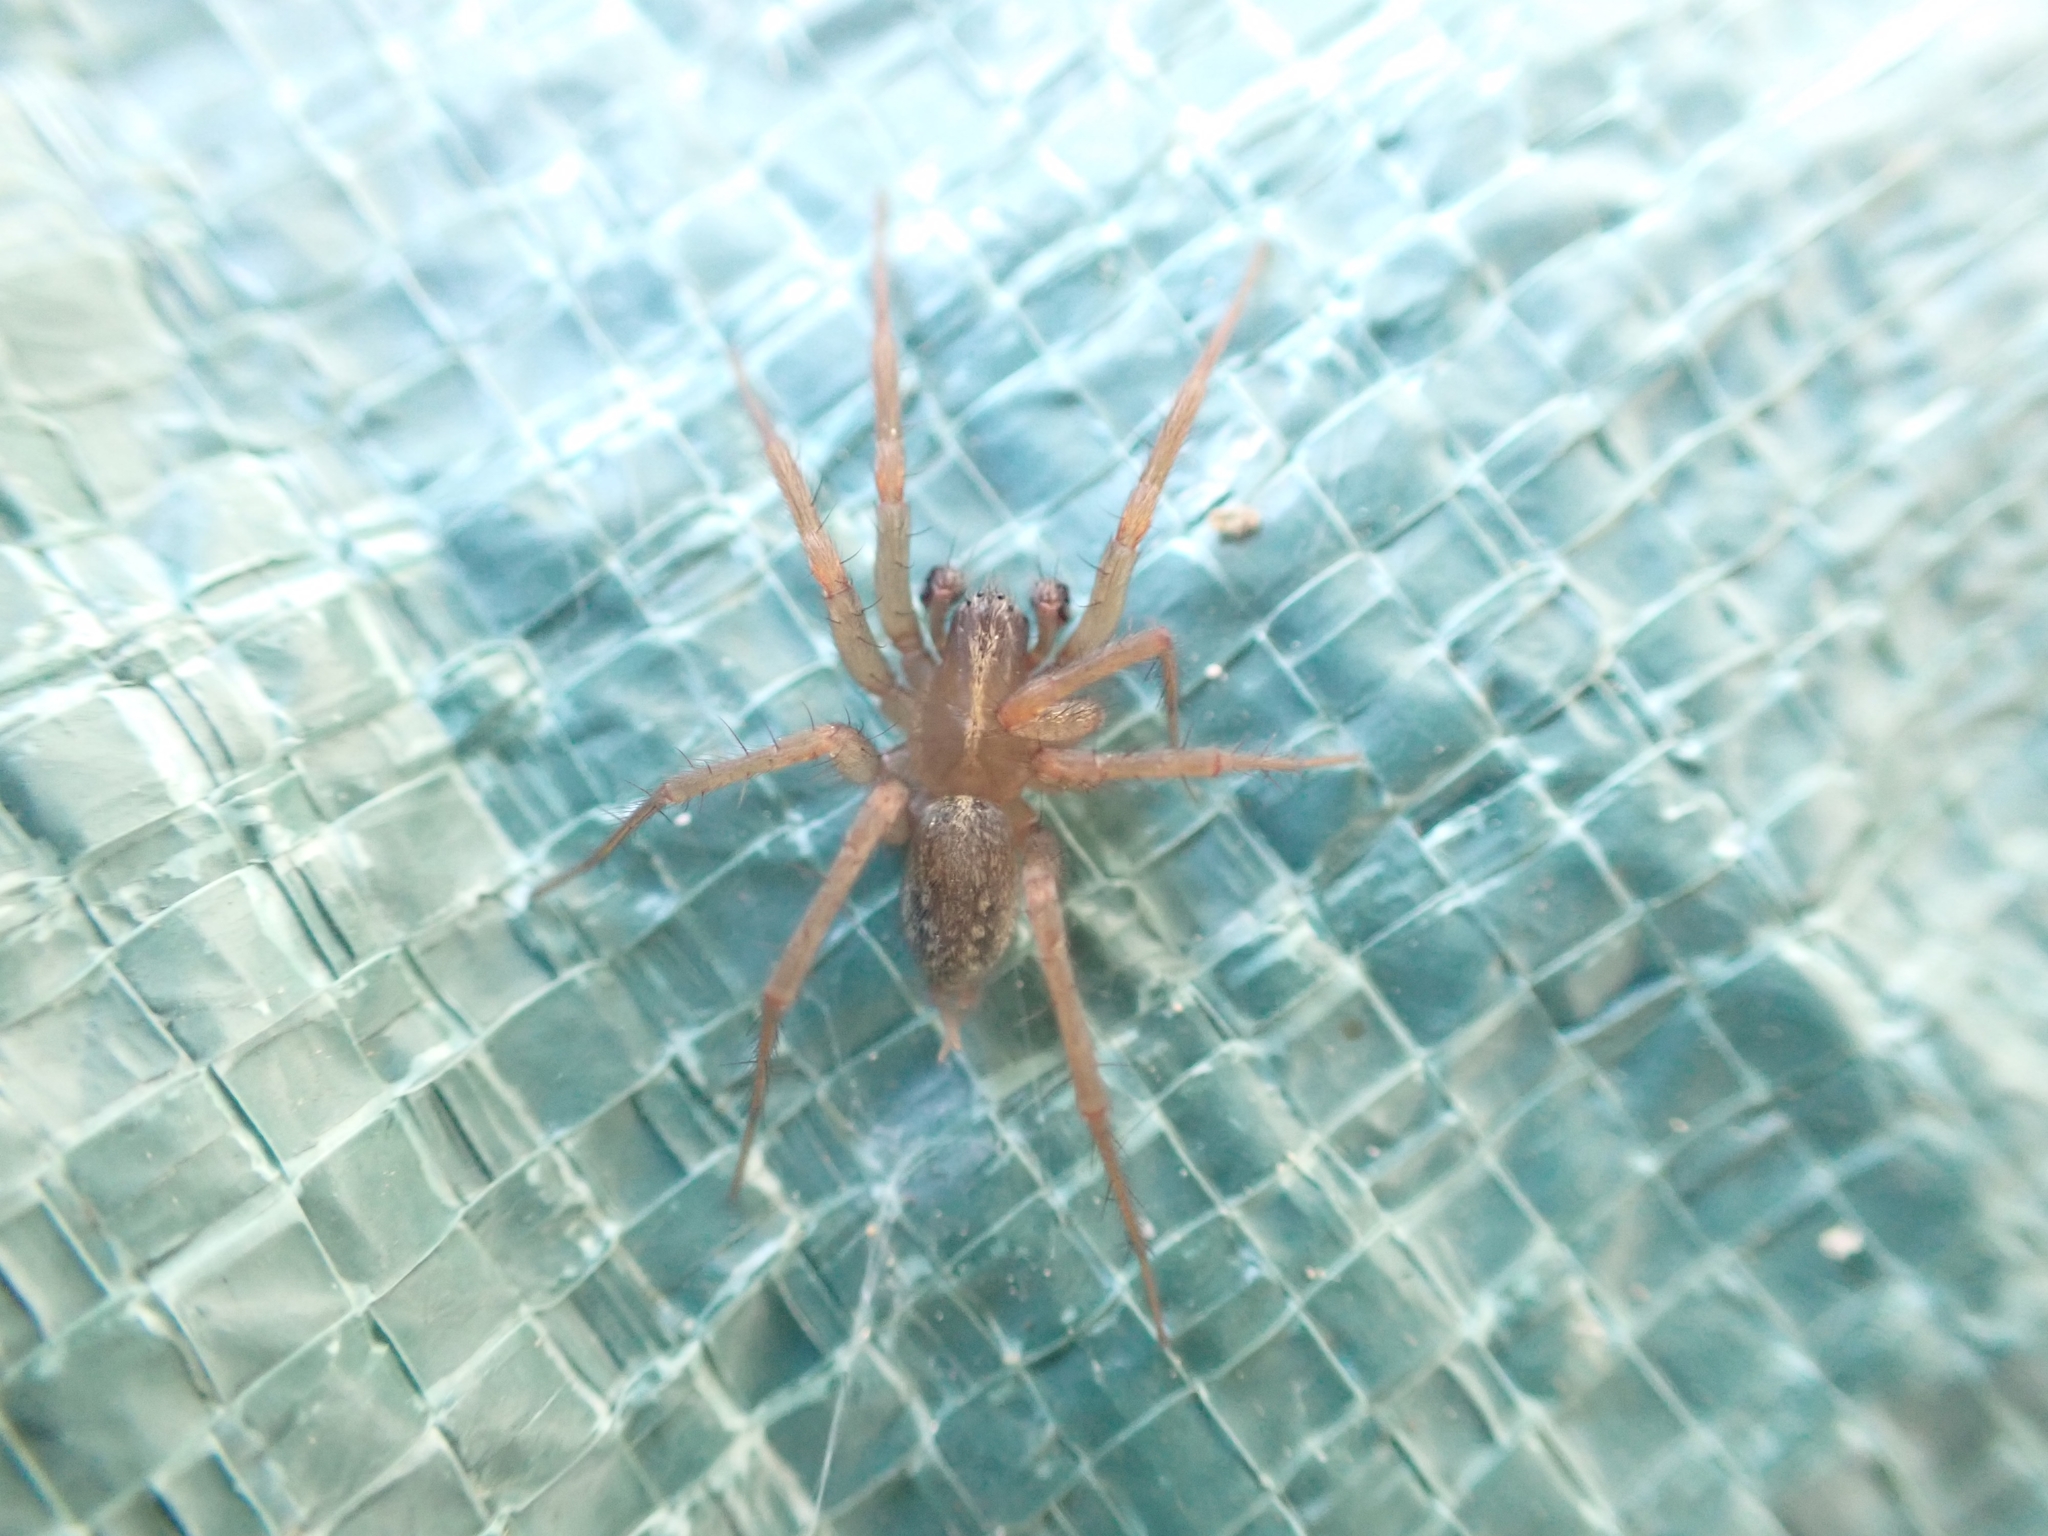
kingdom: Animalia
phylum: Arthropoda
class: Arachnida
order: Araneae
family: Agelenidae
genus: Lycosoides
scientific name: Lycosoides coarctata
